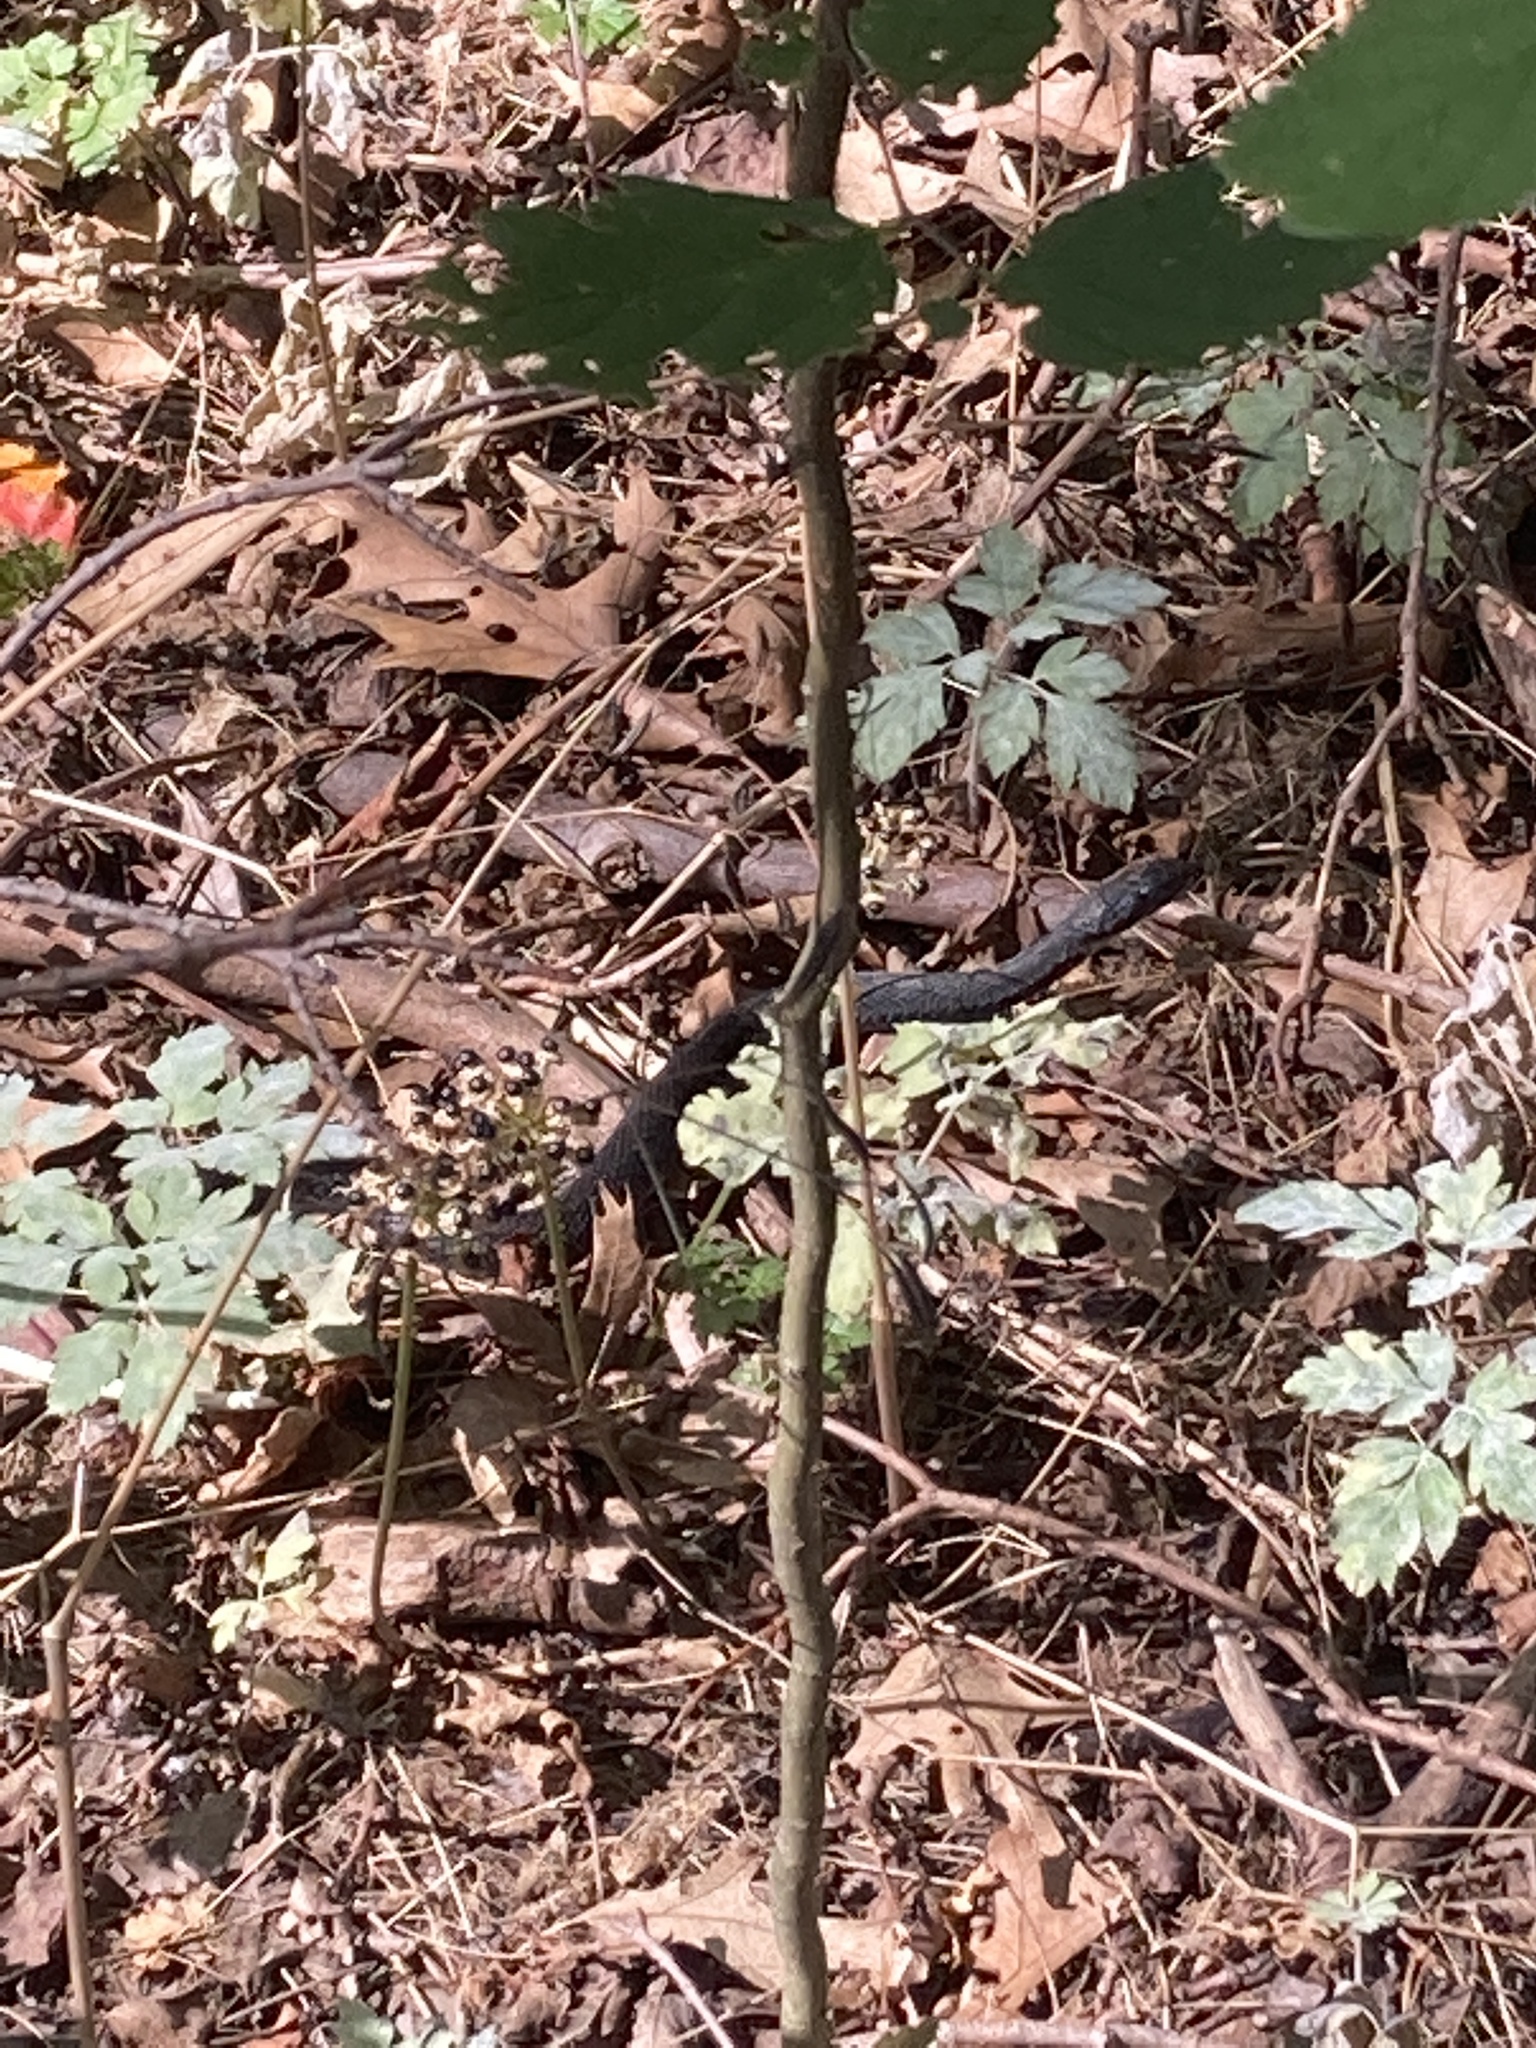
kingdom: Animalia
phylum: Chordata
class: Squamata
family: Colubridae
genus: Thamnophis
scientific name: Thamnophis sirtalis
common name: Common garter snake
